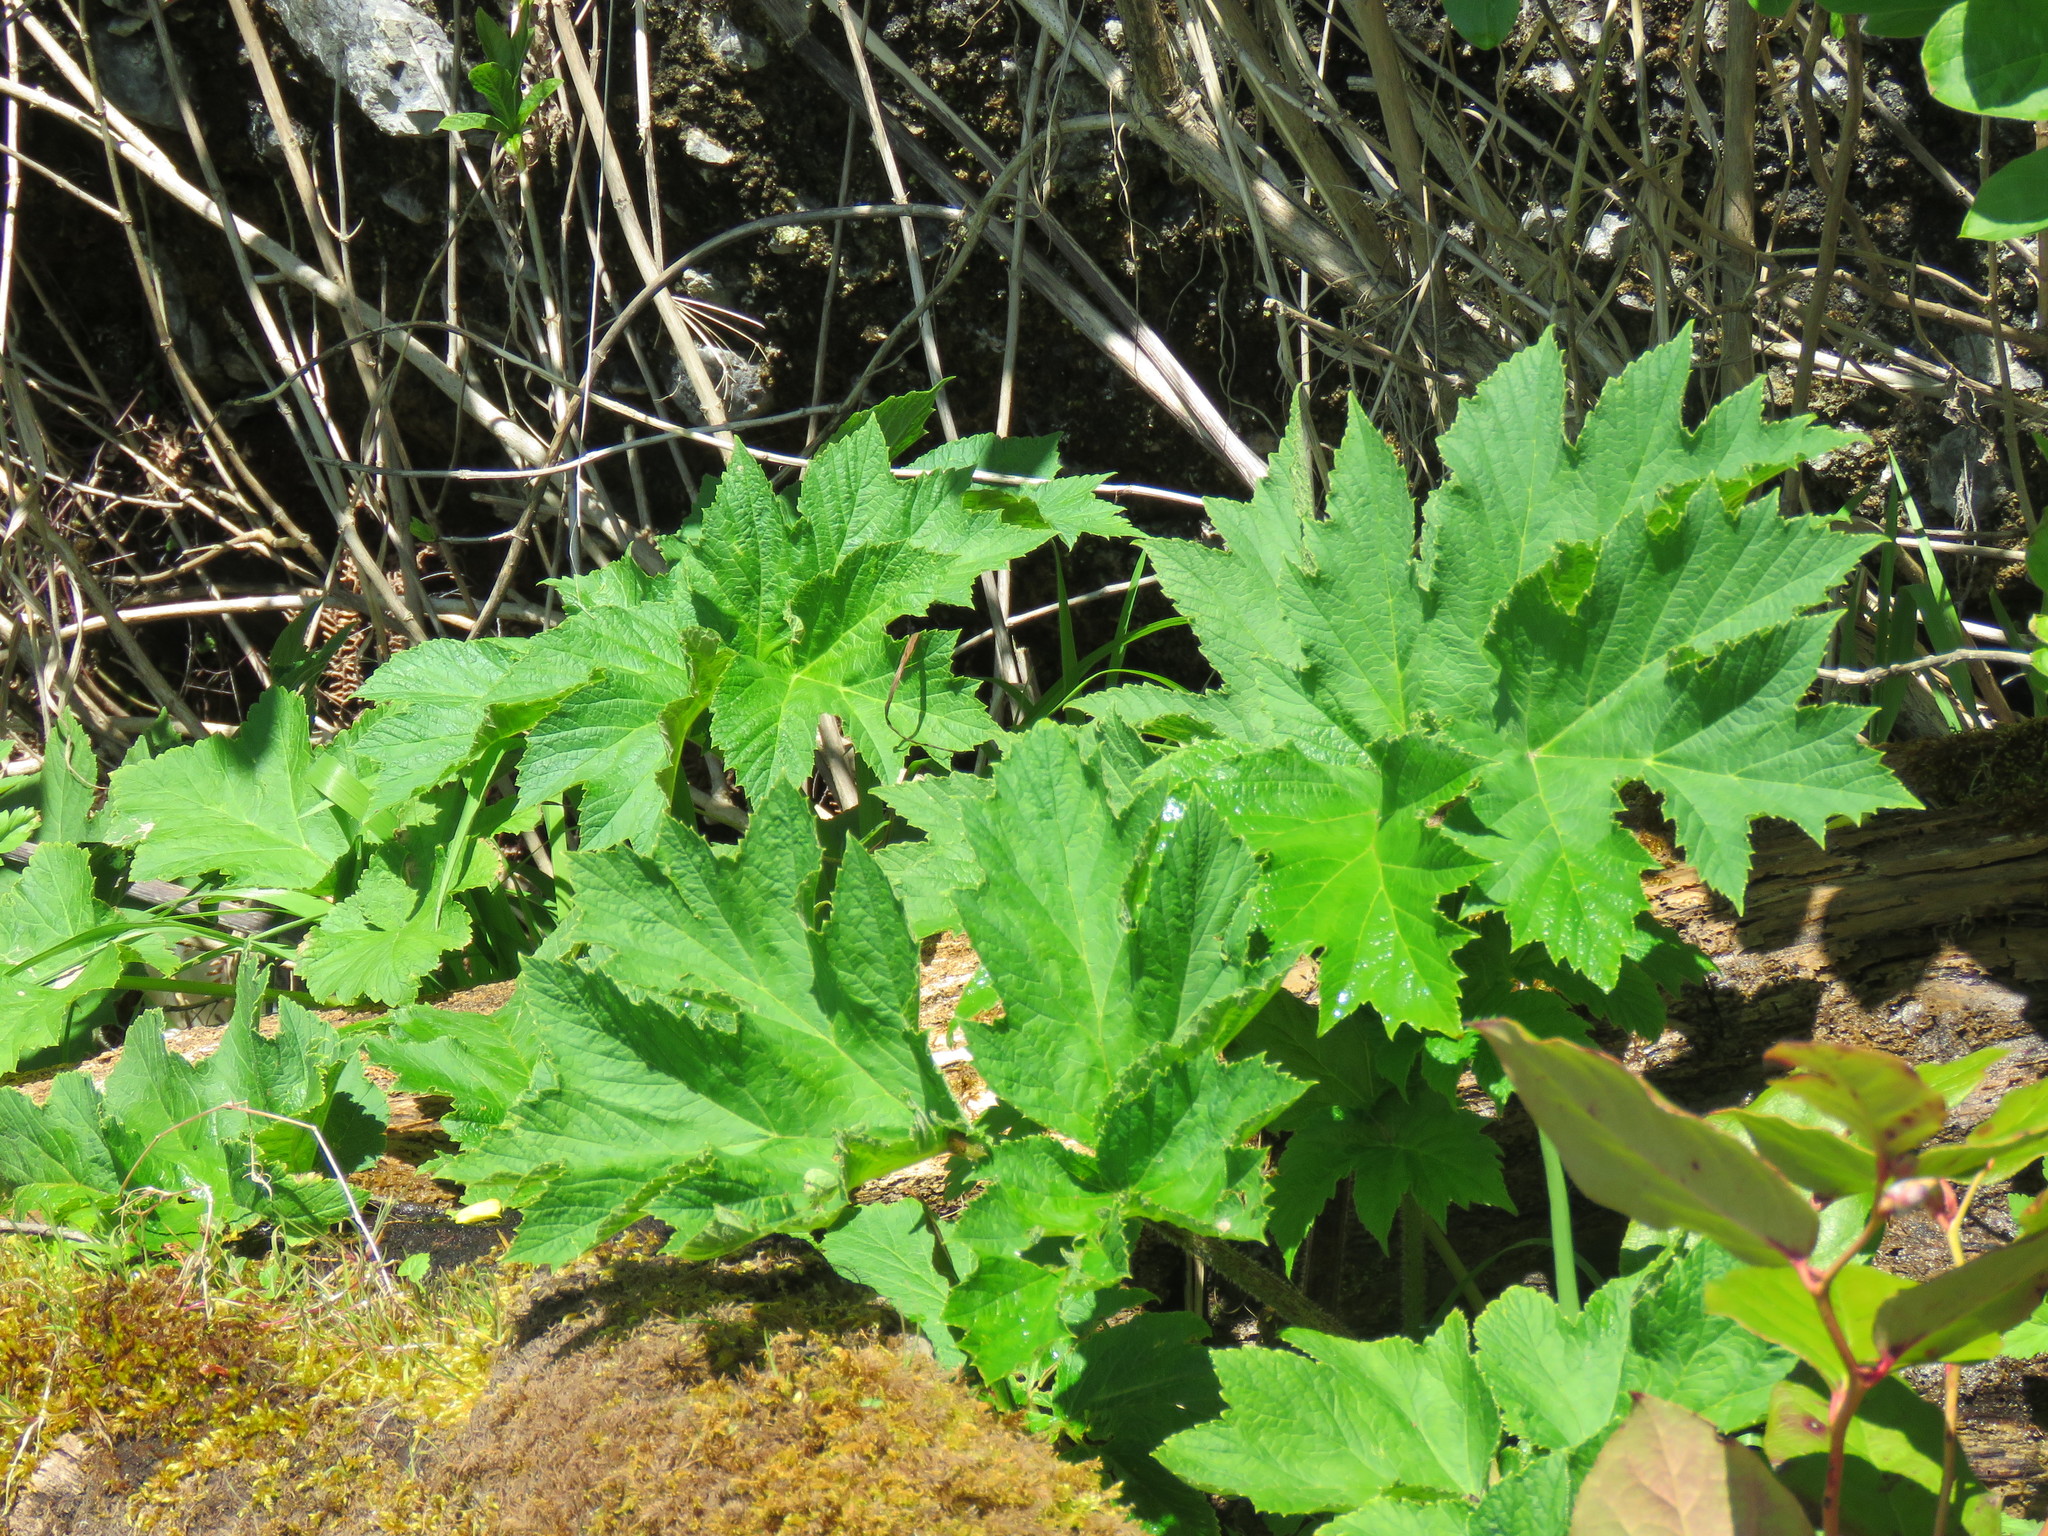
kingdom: Plantae
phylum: Tracheophyta
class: Magnoliopsida
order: Apiales
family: Apiaceae
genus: Heracleum
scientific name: Heracleum maximum
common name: American cow parsnip
